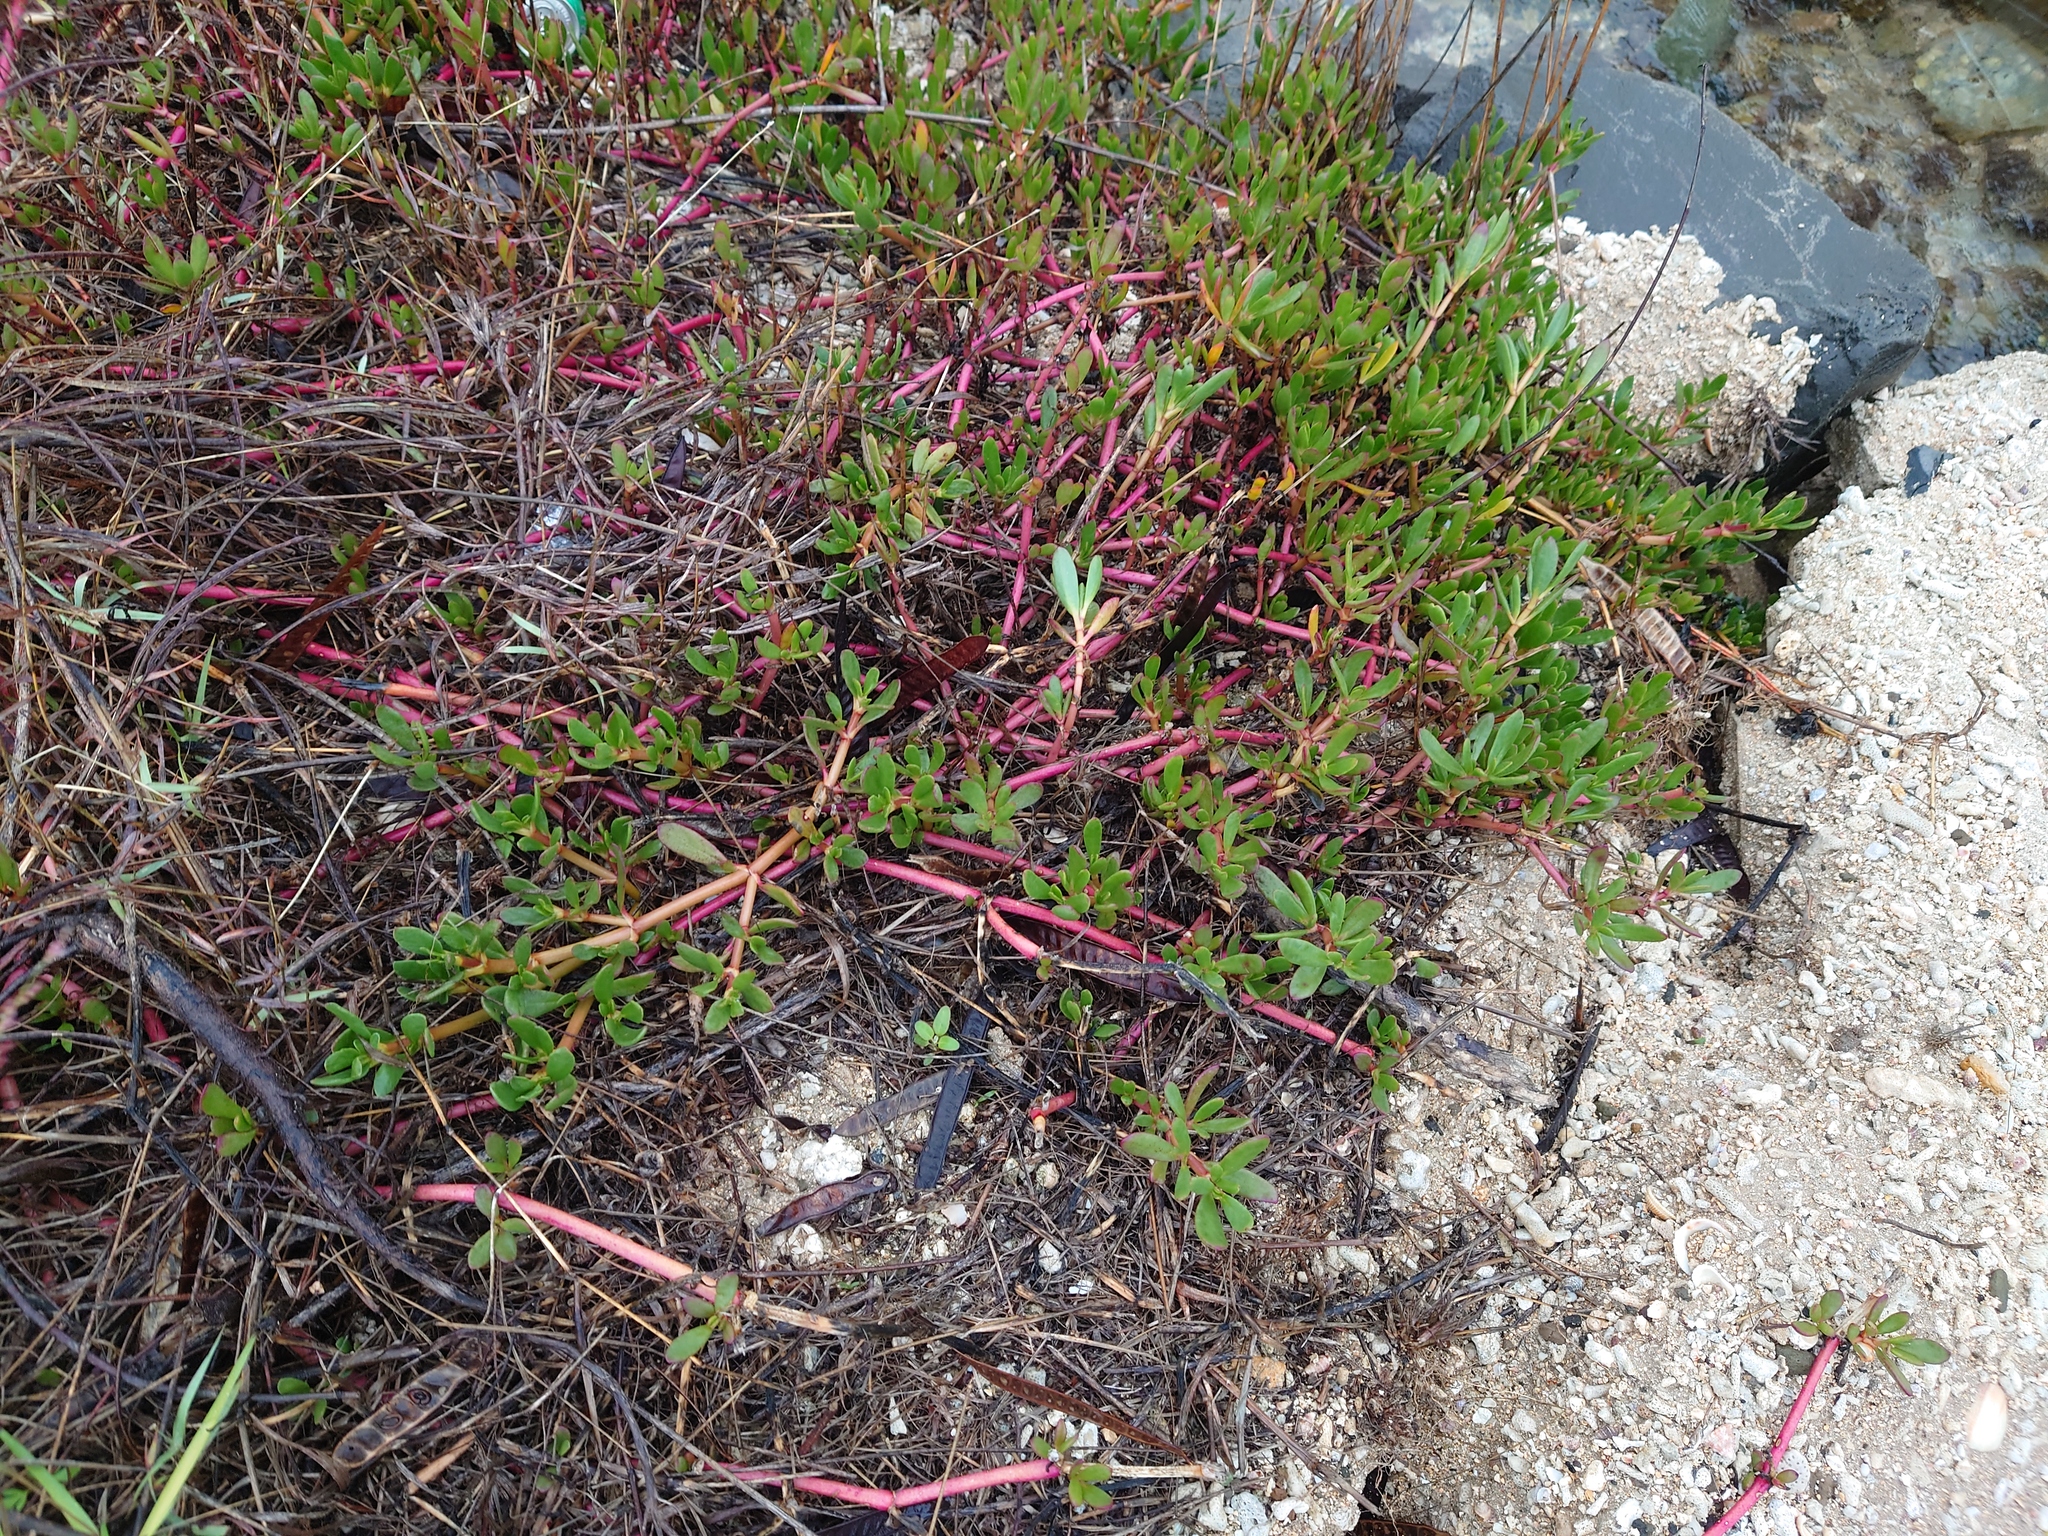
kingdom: Plantae
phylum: Tracheophyta
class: Magnoliopsida
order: Caryophyllales
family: Aizoaceae
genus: Sesuvium
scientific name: Sesuvium portulacastrum
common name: Sea-purslane
